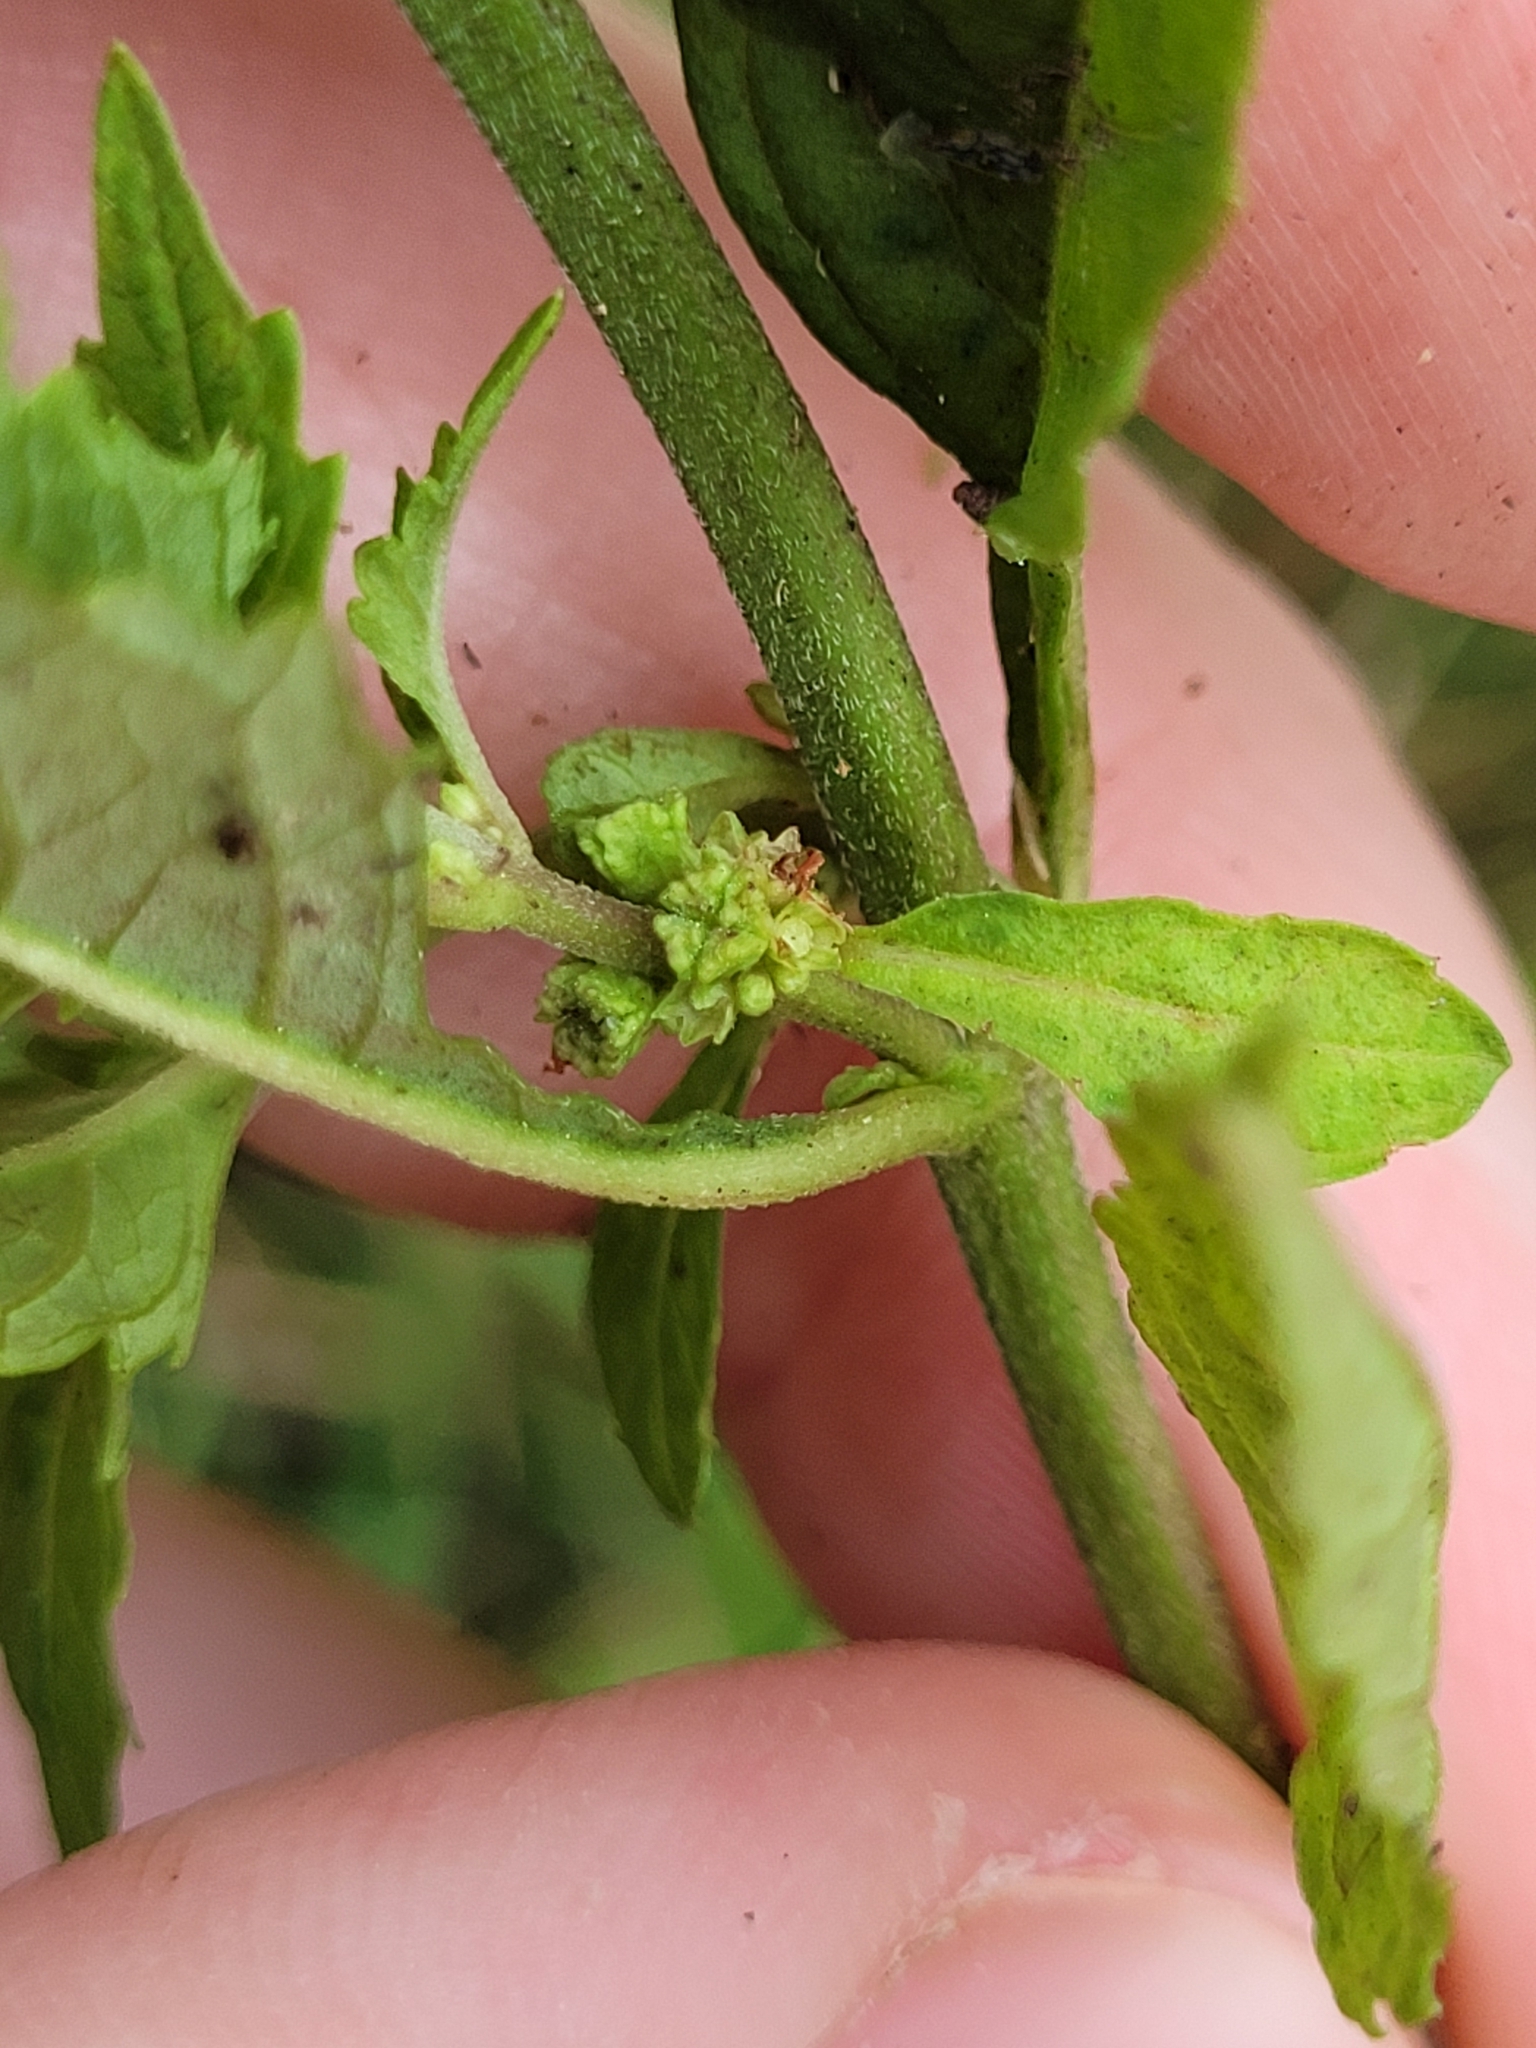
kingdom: Plantae
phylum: Tracheophyta
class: Magnoliopsida
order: Lamiales
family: Lamiaceae
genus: Lycopus
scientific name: Lycopus virginicus
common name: Bugleweed
